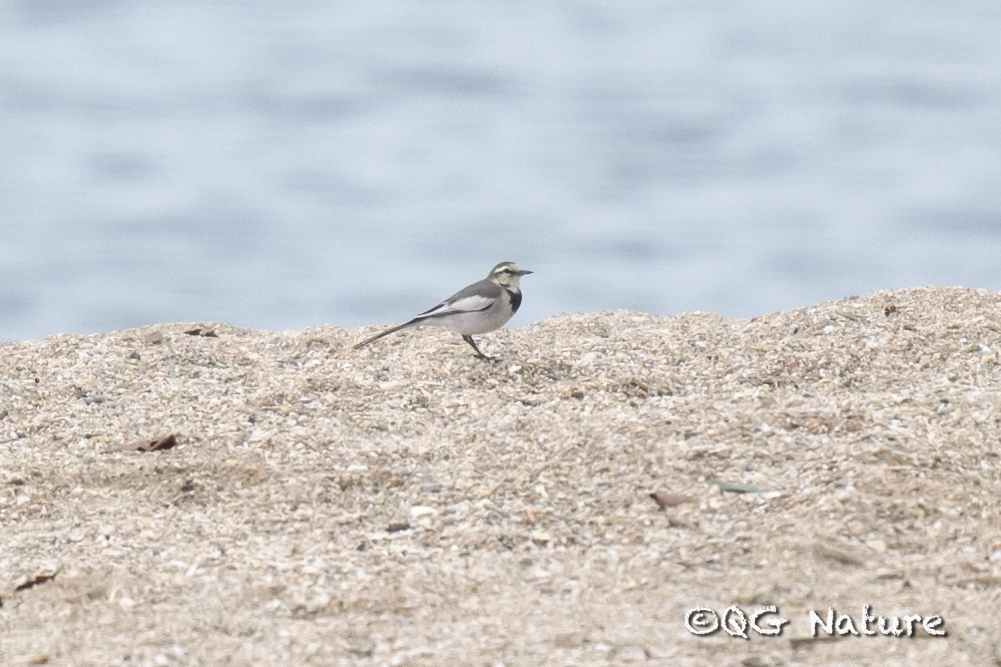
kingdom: Animalia
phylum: Chordata
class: Aves
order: Passeriformes
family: Motacillidae
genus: Motacilla
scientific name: Motacilla alba
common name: White wagtail
